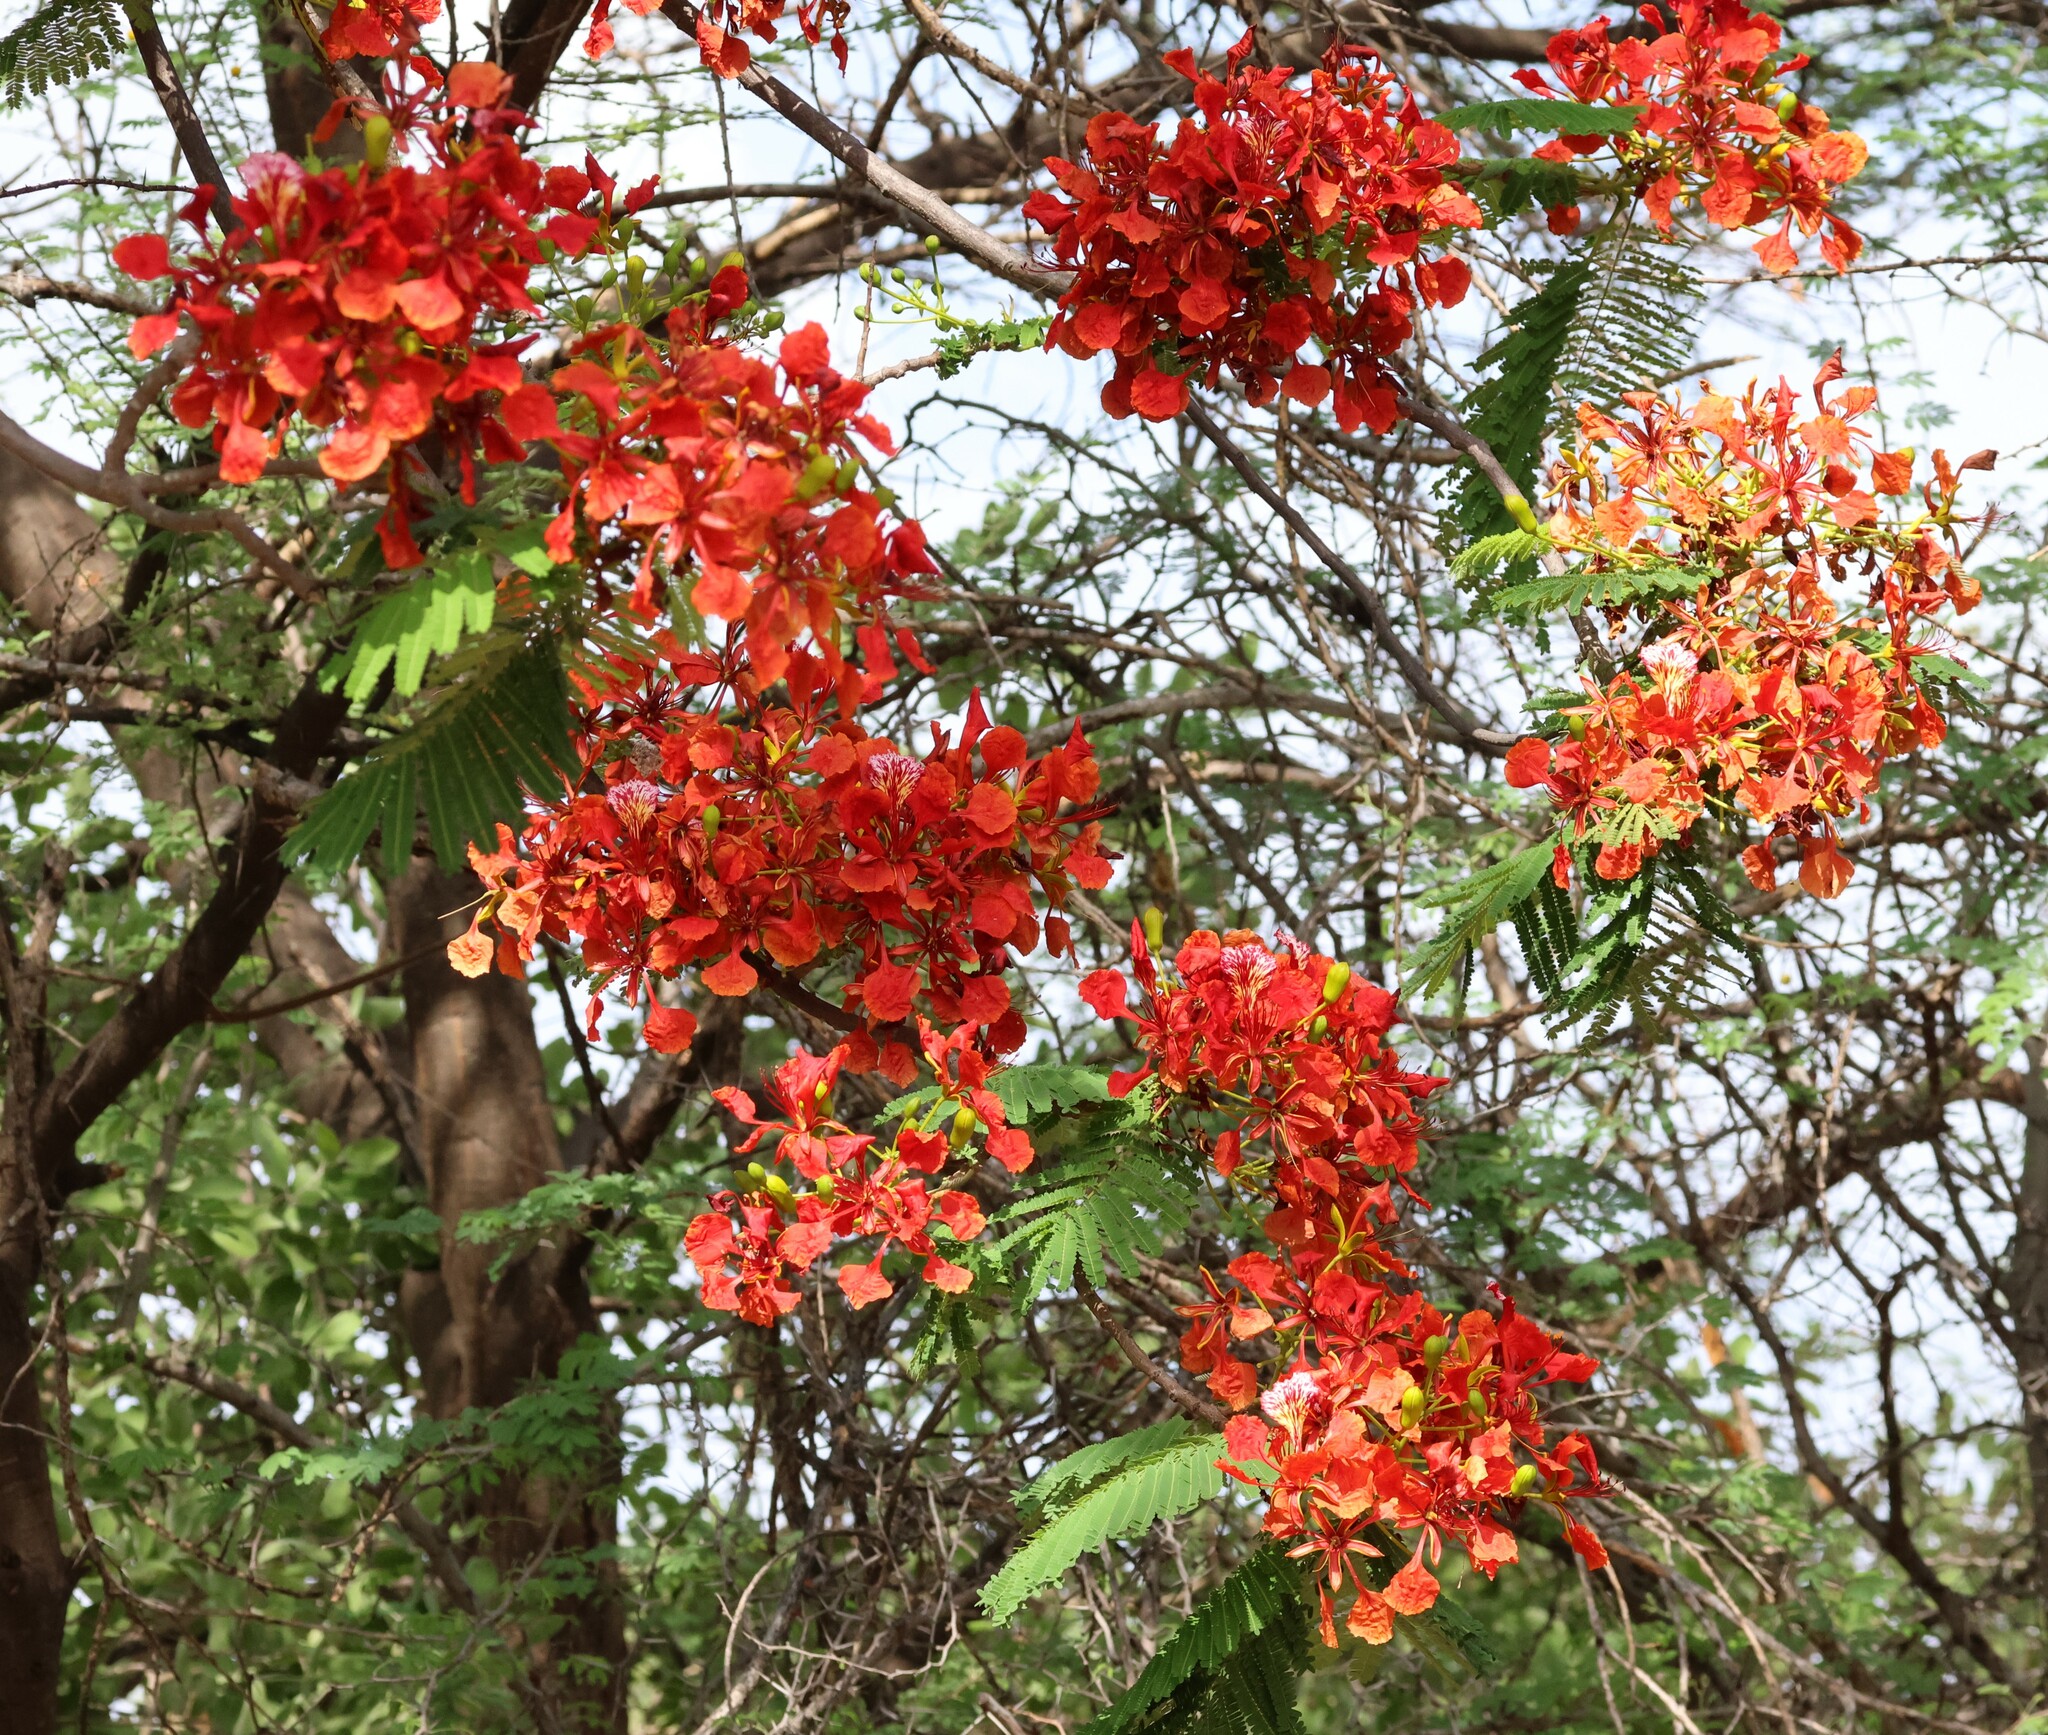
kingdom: Plantae
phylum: Tracheophyta
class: Magnoliopsida
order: Fabales
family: Fabaceae
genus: Delonix
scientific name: Delonix regia
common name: Royal poinciana
